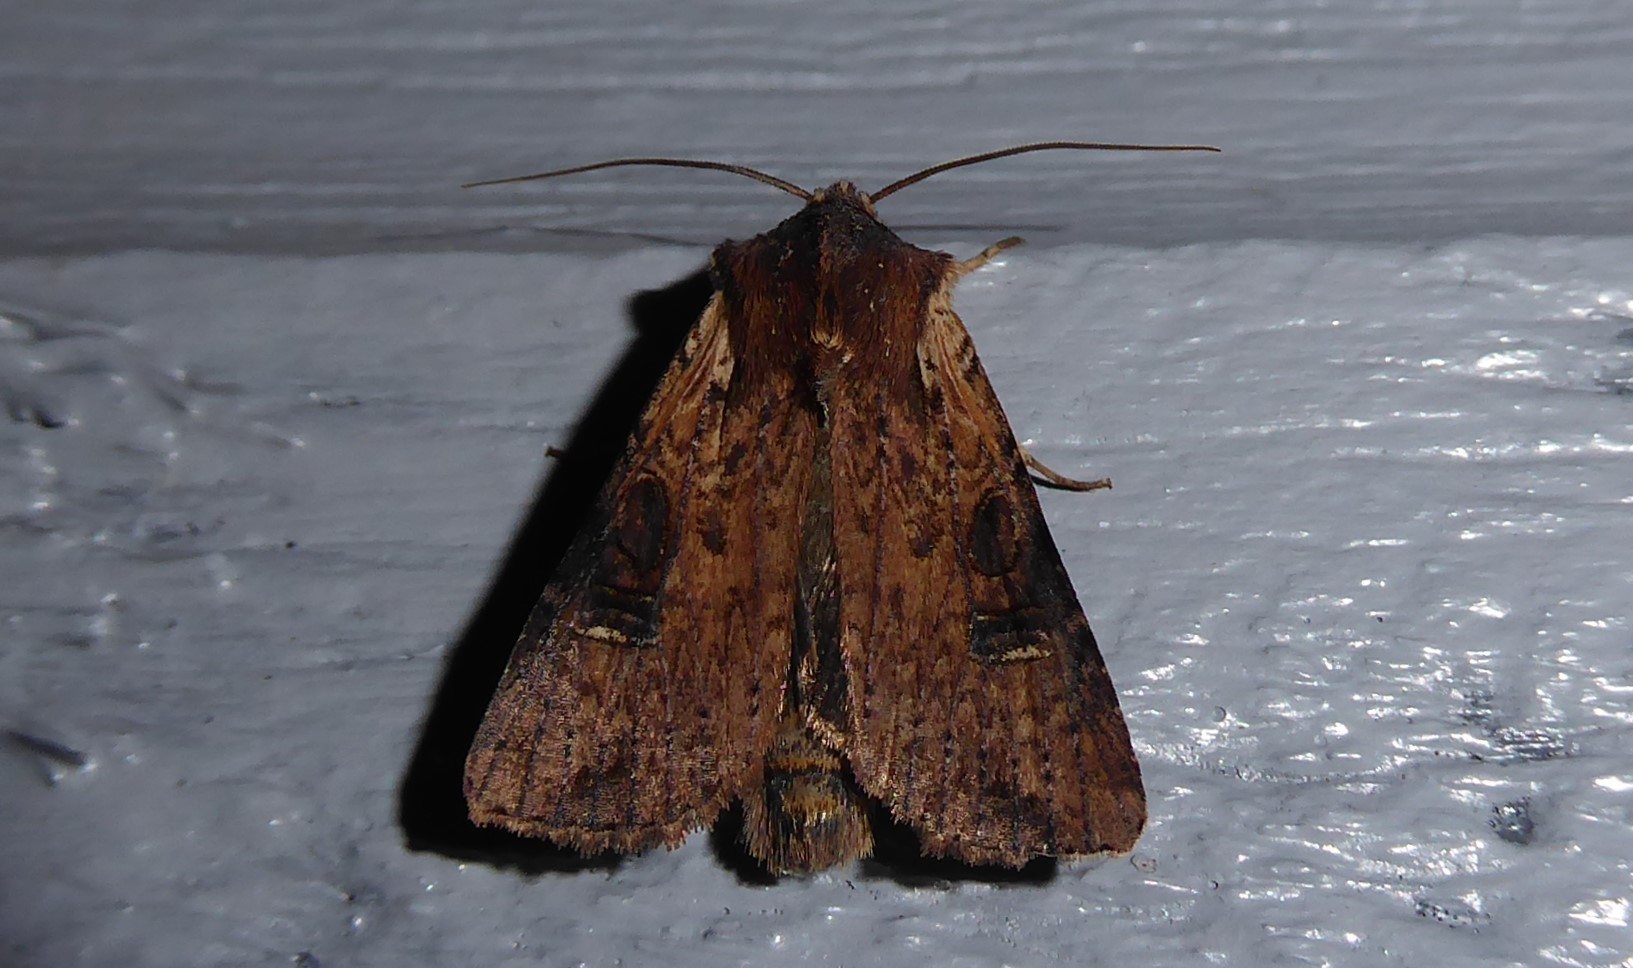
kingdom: Animalia
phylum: Arthropoda
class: Insecta
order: Lepidoptera
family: Noctuidae
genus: Ichneutica
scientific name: Ichneutica omoplaca
